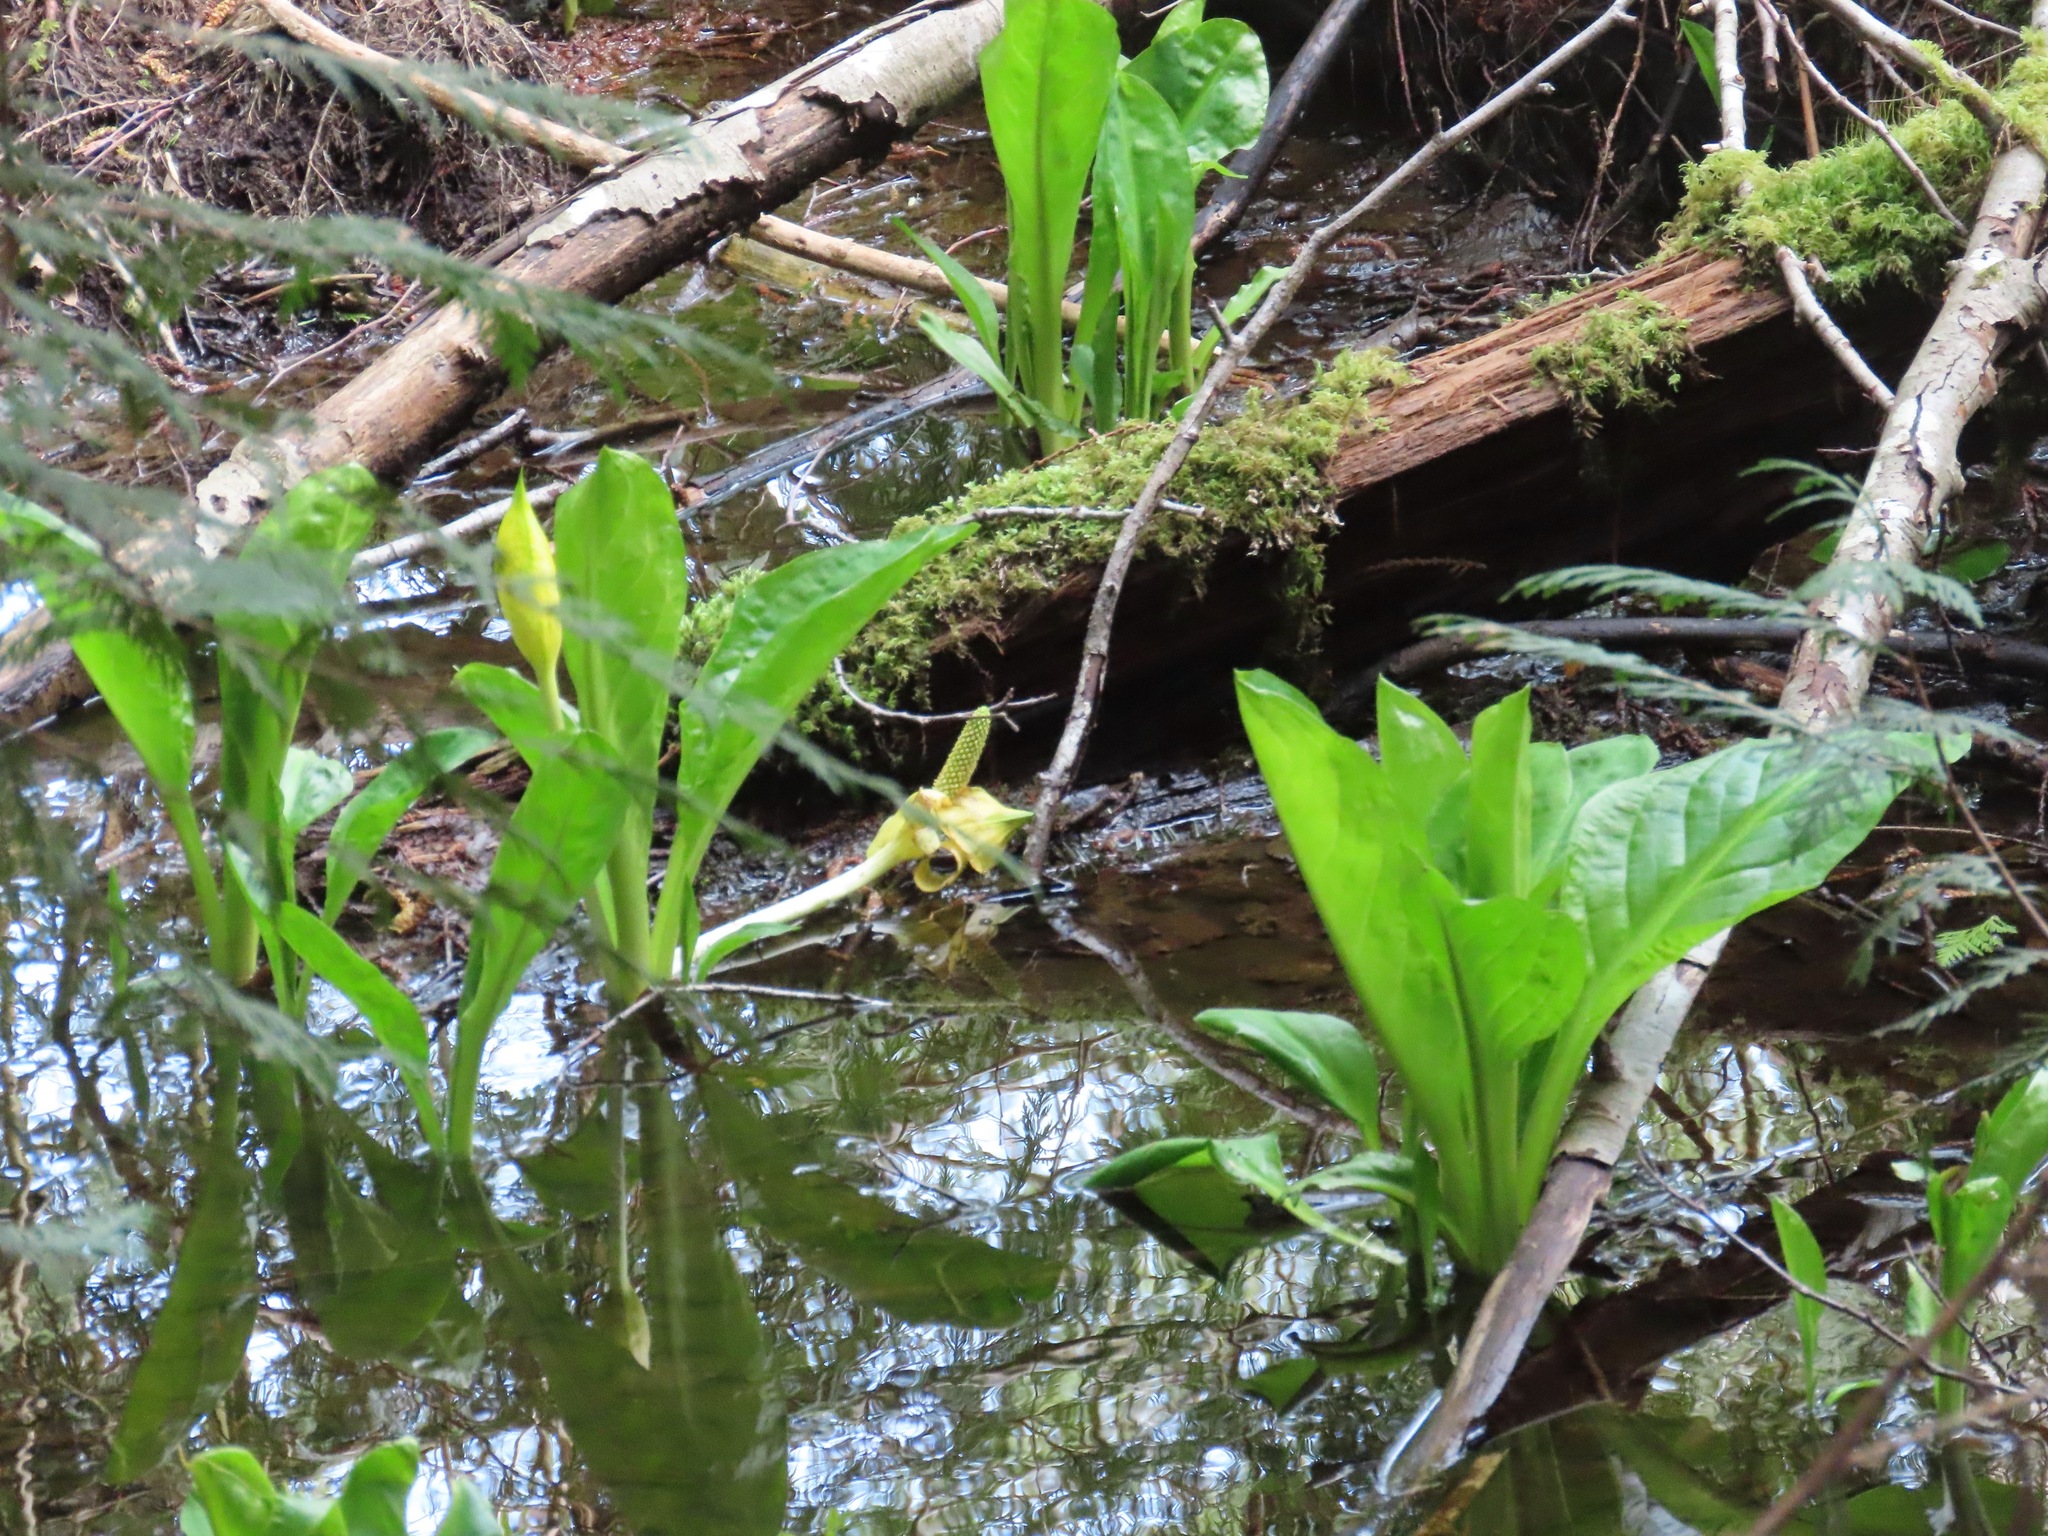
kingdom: Plantae
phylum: Tracheophyta
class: Liliopsida
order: Alismatales
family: Araceae
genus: Lysichiton
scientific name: Lysichiton americanus
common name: American skunk cabbage
